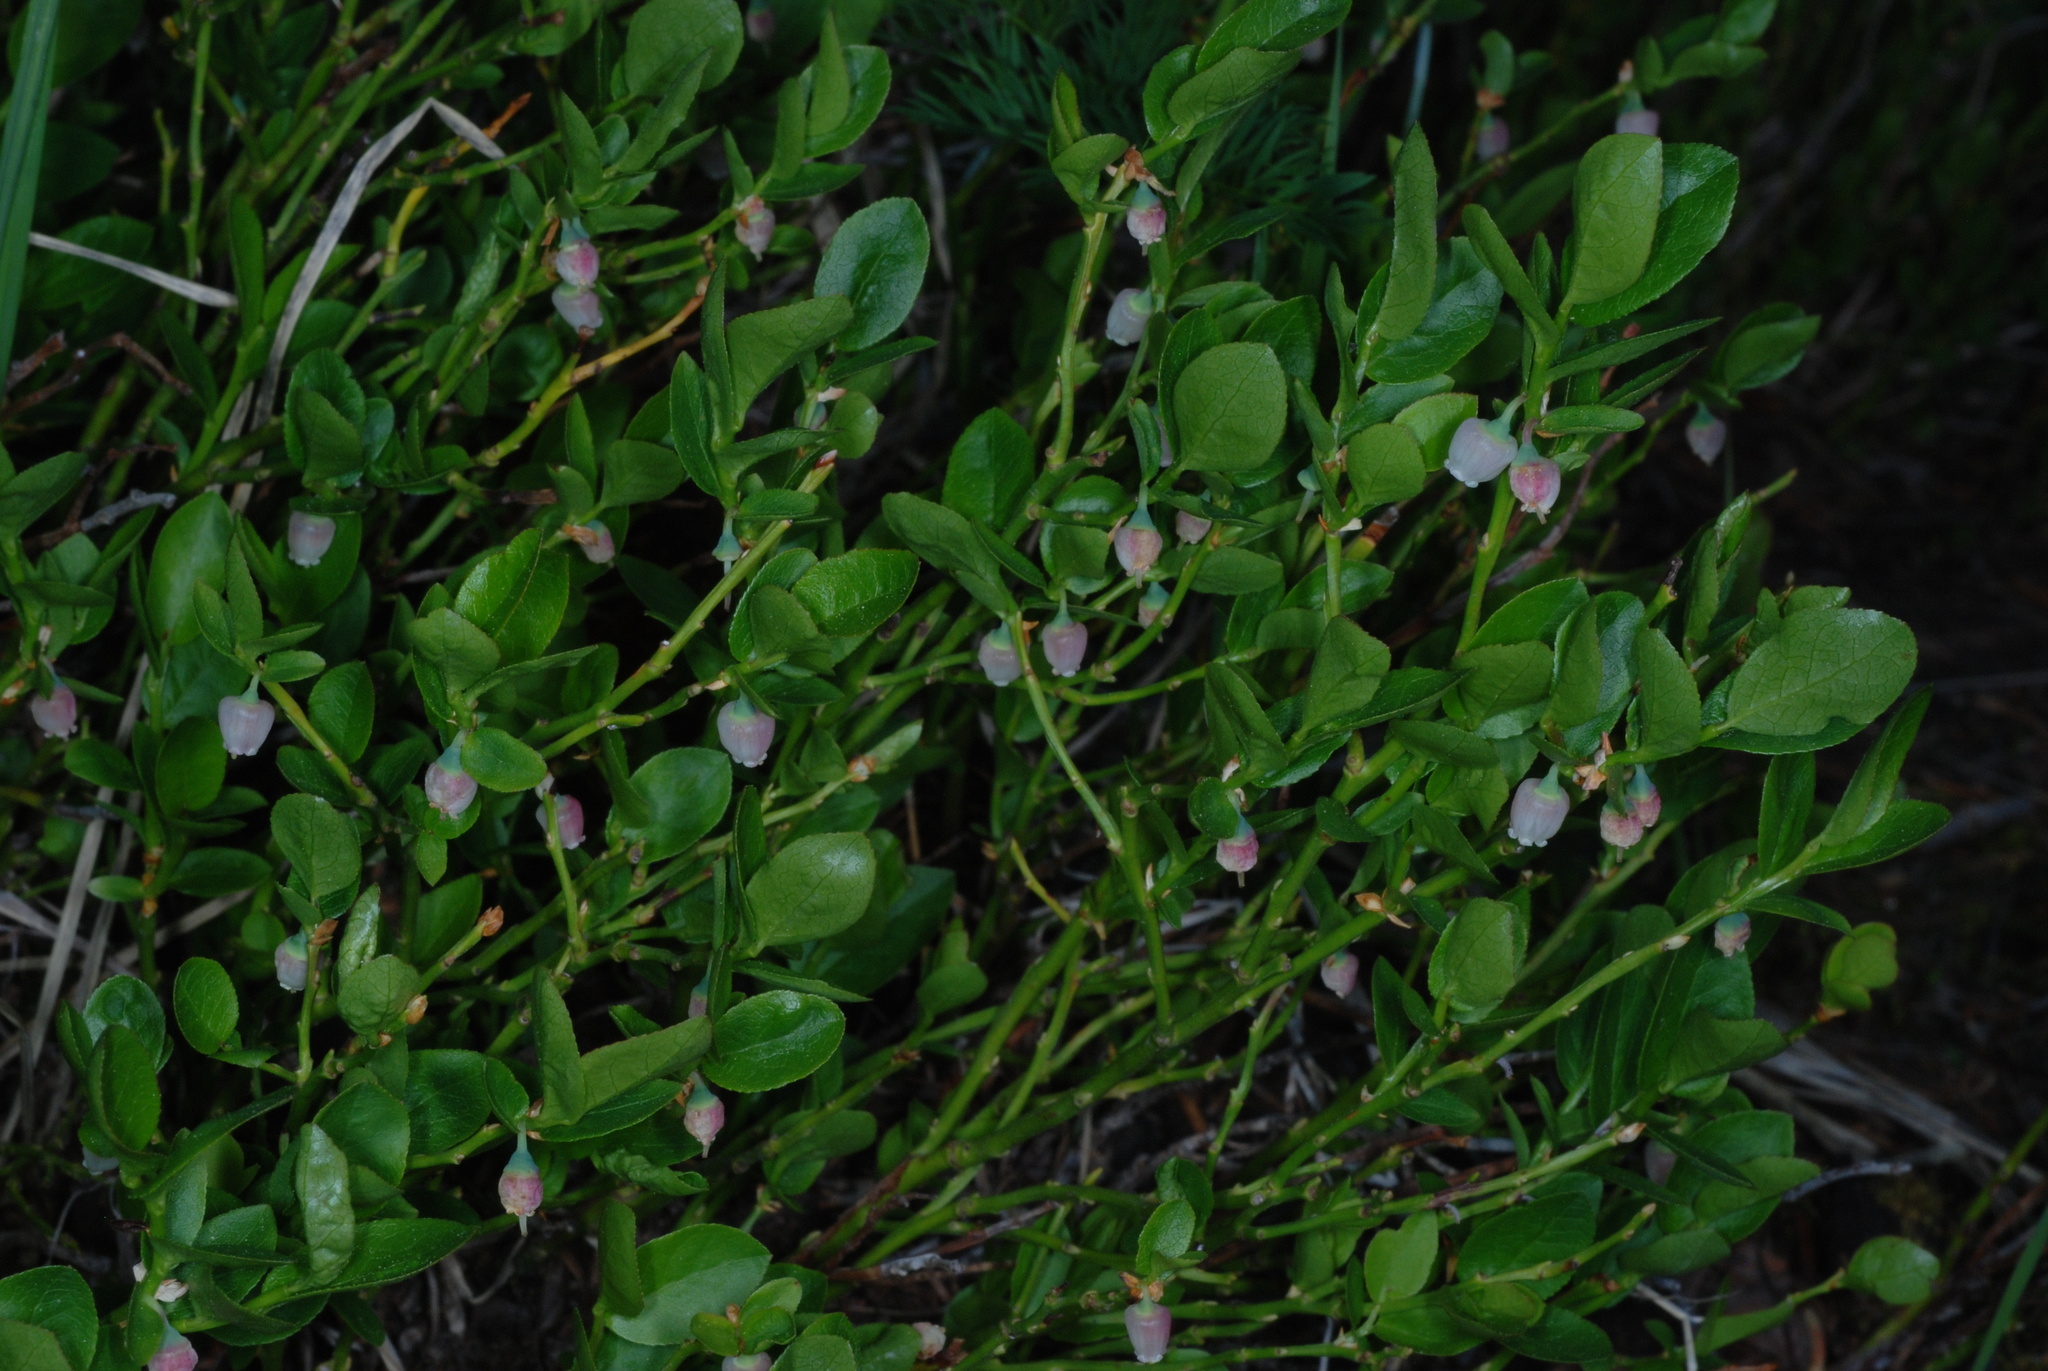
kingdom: Plantae
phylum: Tracheophyta
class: Magnoliopsida
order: Ericales
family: Ericaceae
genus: Vaccinium
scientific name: Vaccinium scoparium
